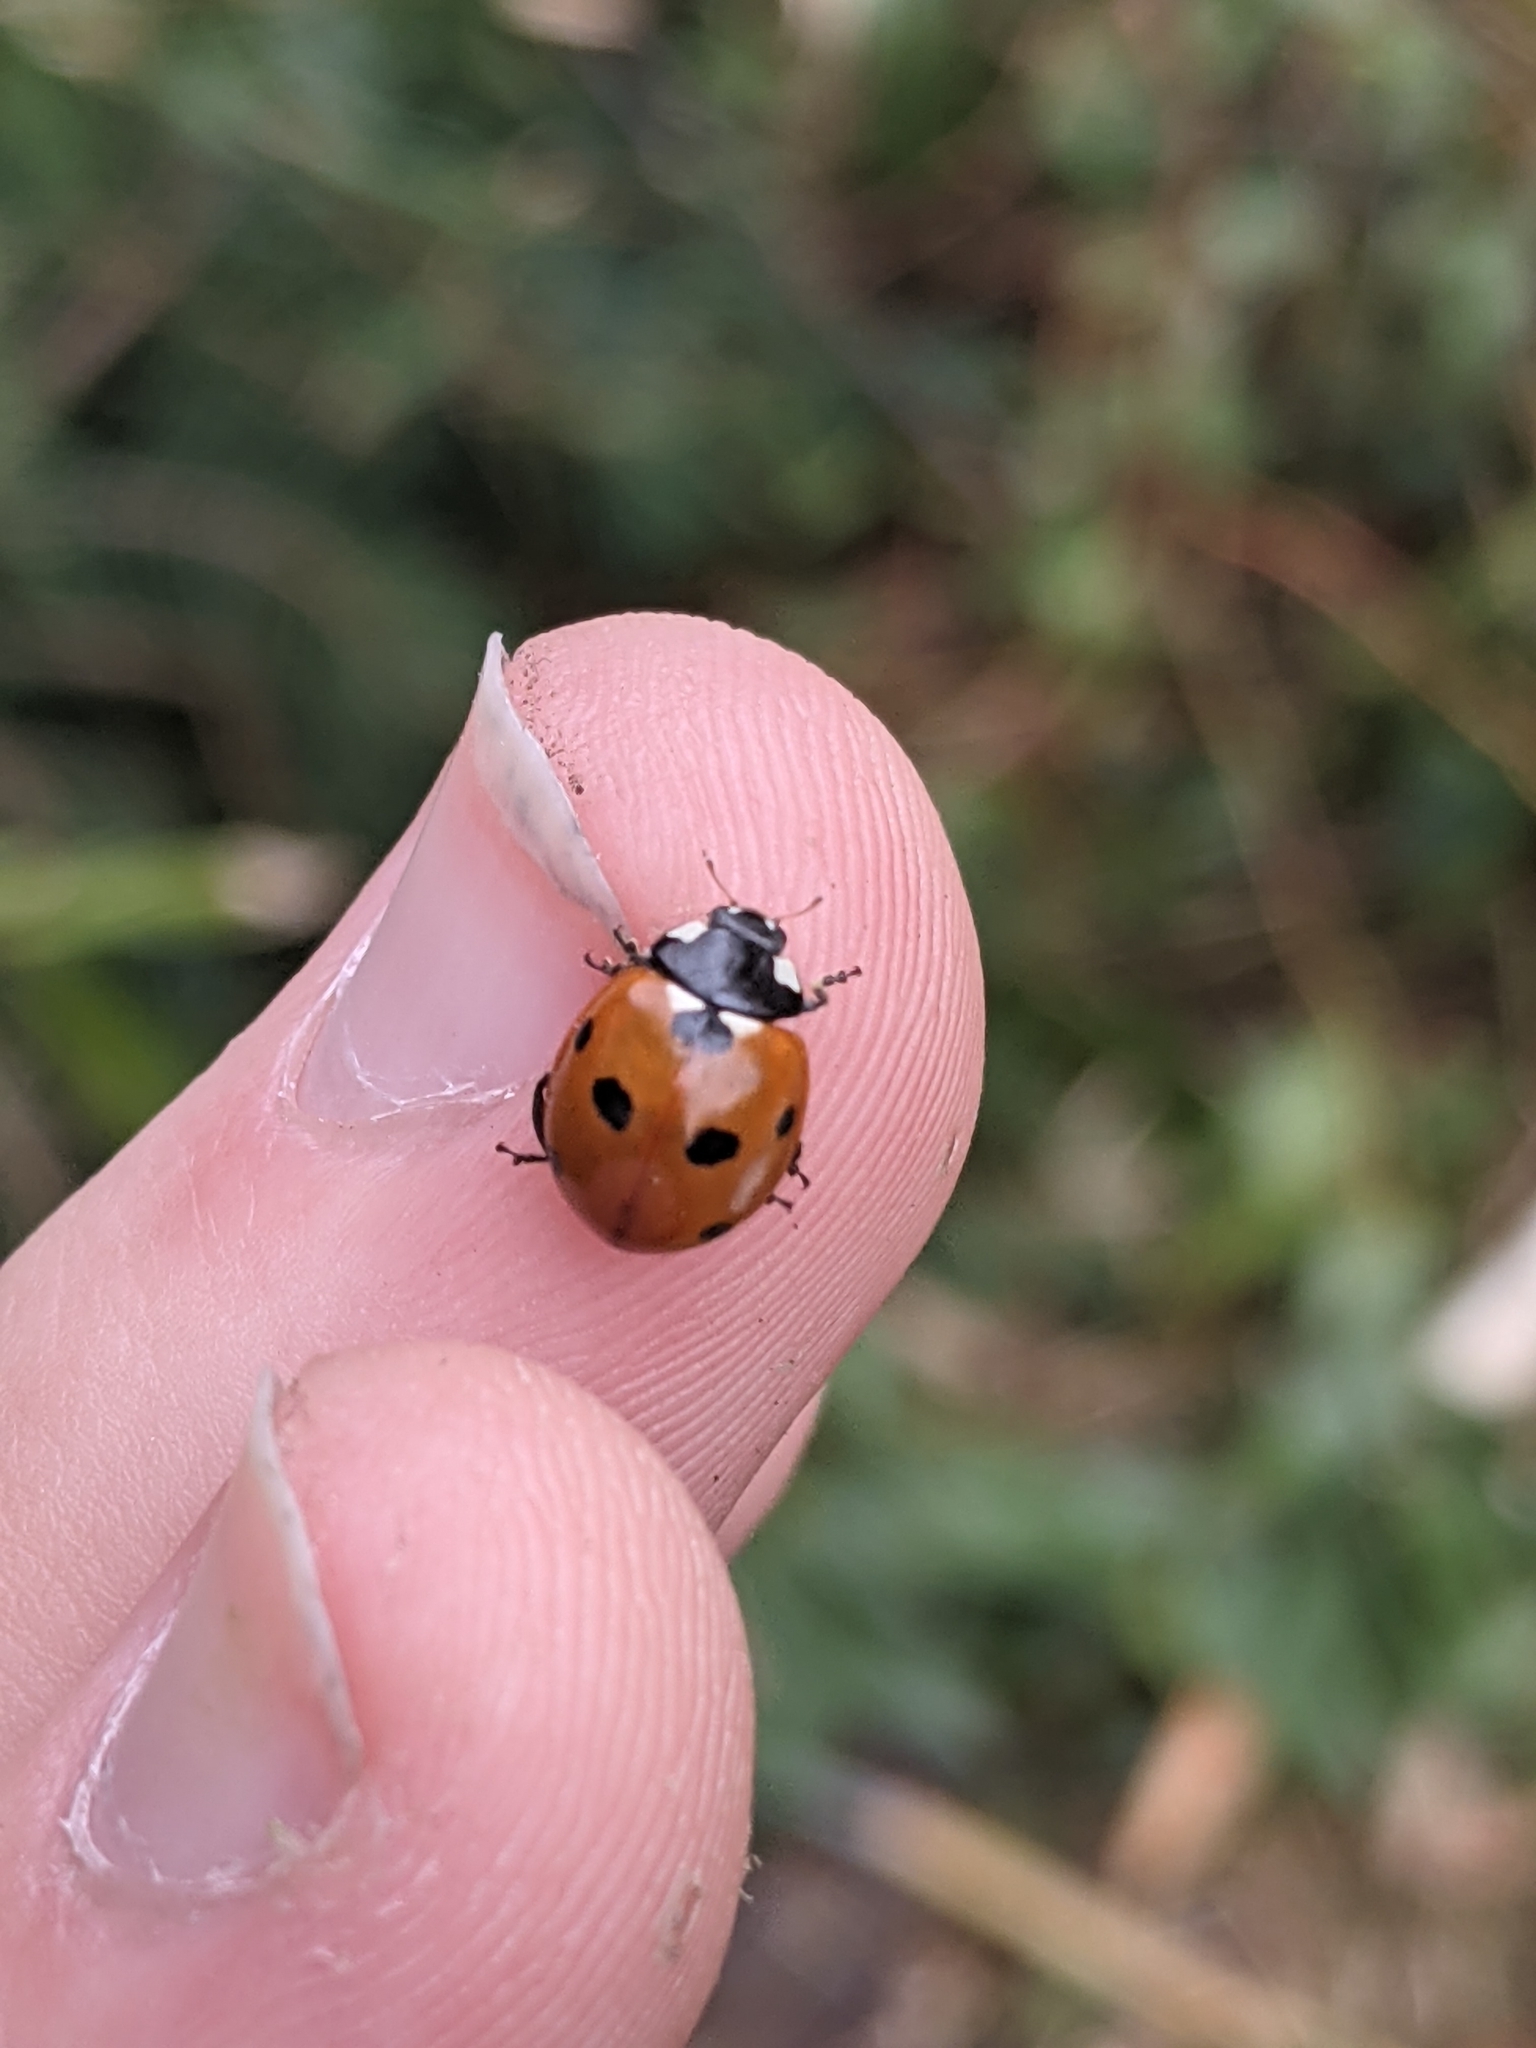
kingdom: Animalia
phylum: Arthropoda
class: Insecta
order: Coleoptera
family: Coccinellidae
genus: Coccinella
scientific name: Coccinella septempunctata
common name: Sevenspotted lady beetle
